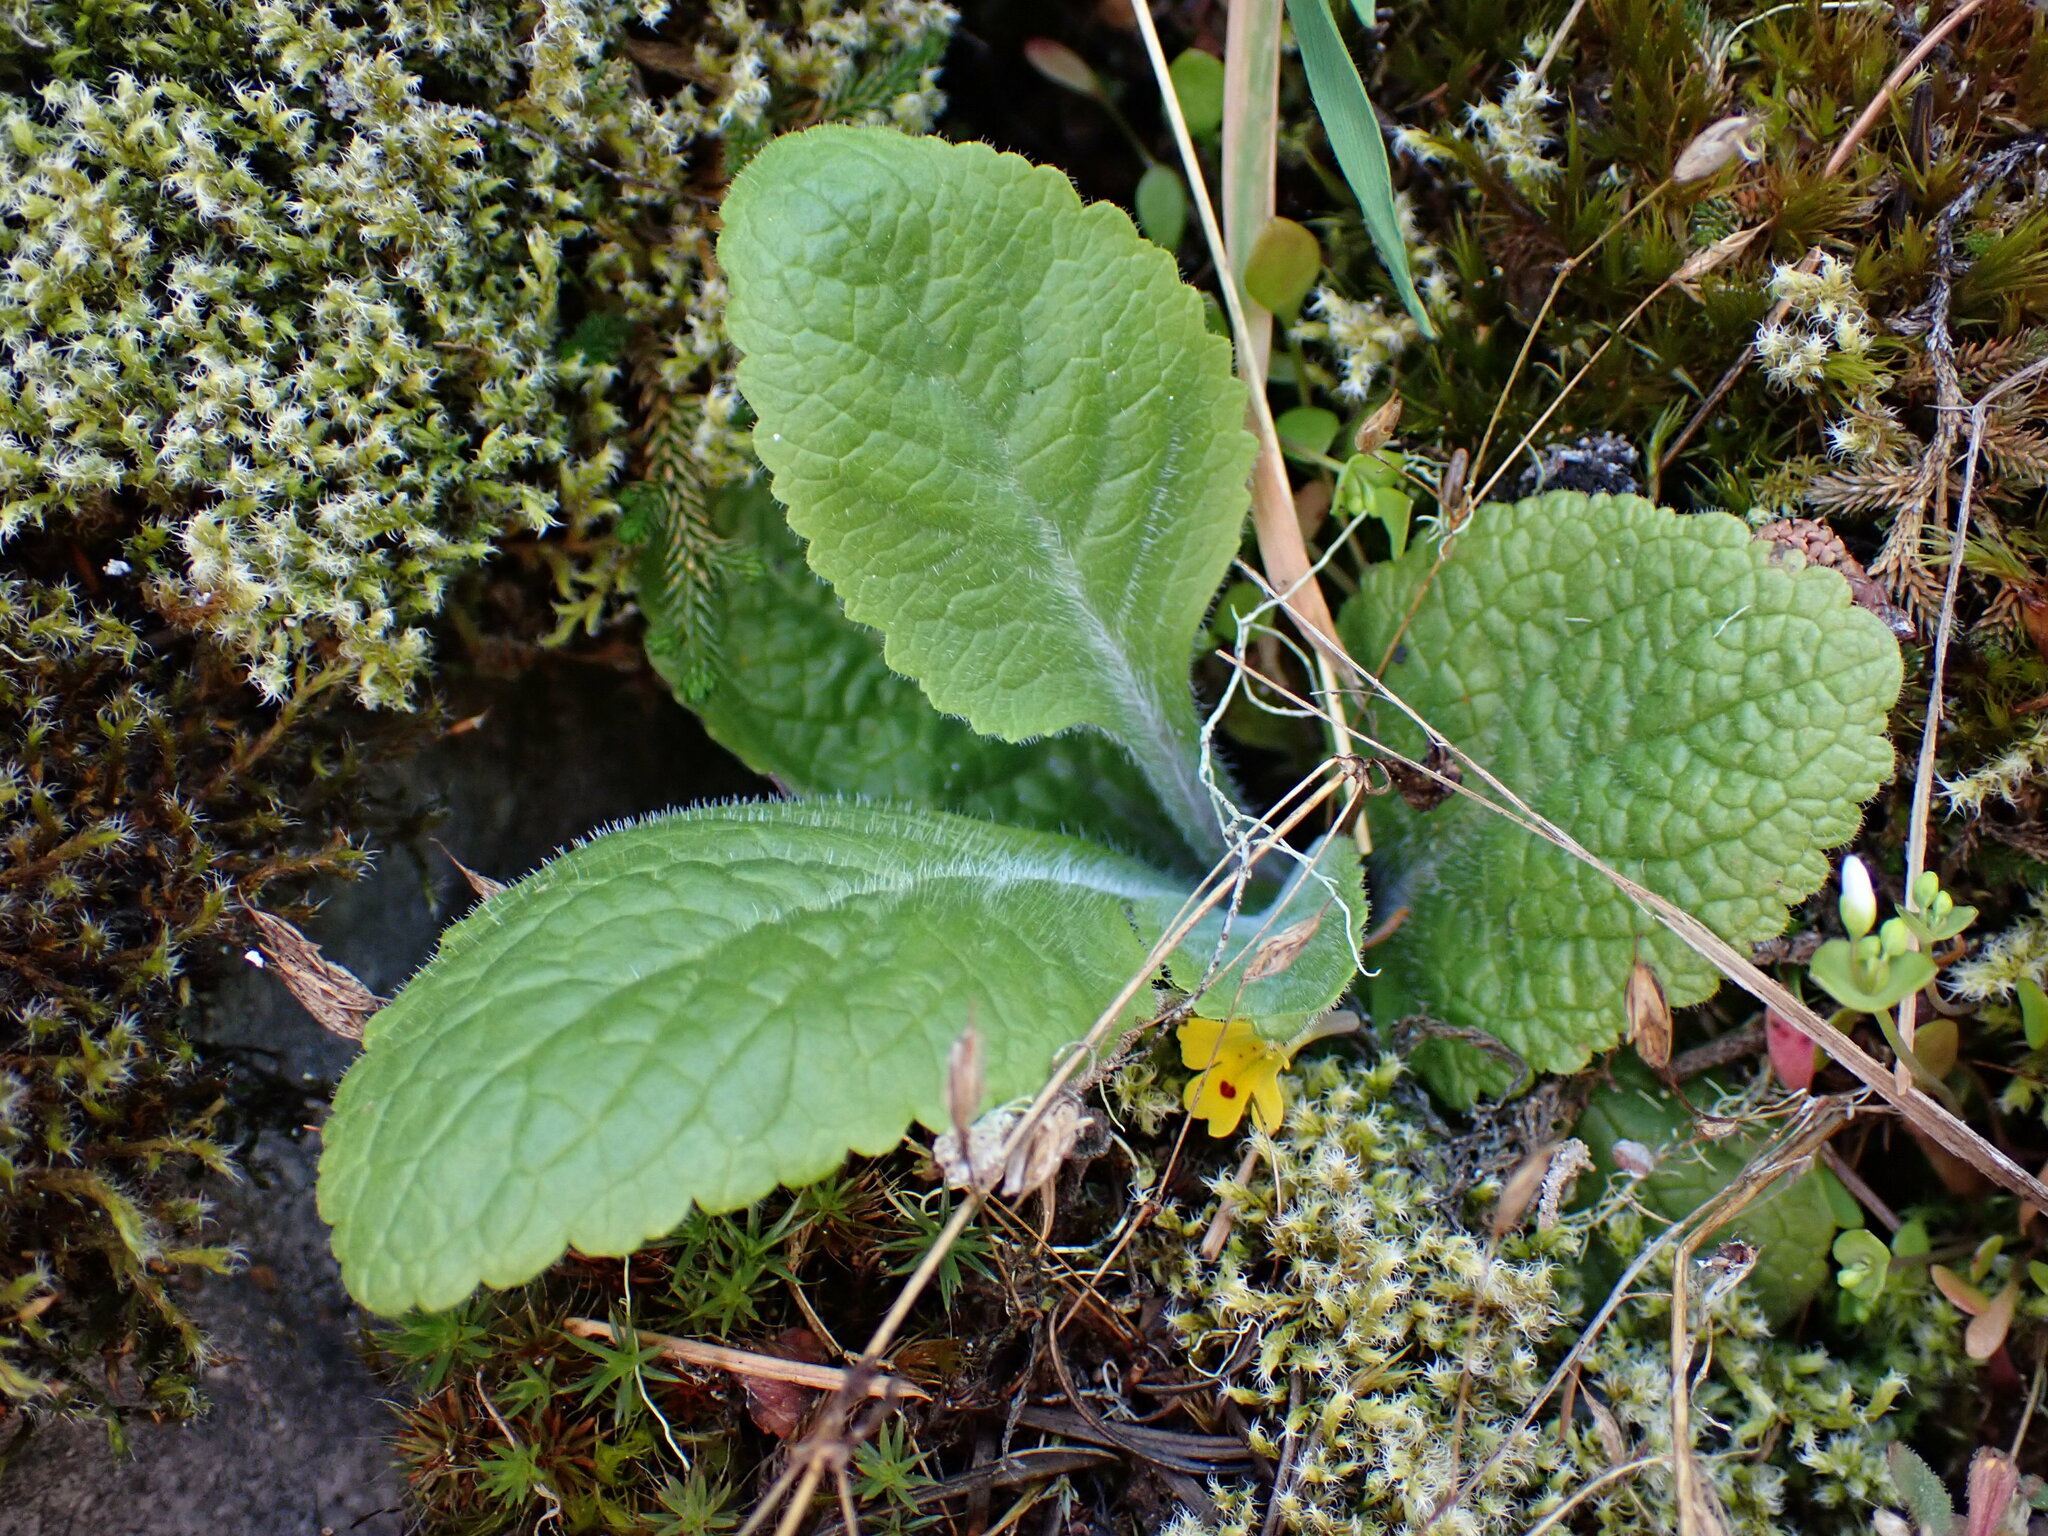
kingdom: Plantae
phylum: Tracheophyta
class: Magnoliopsida
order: Lamiales
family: Plantaginaceae
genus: Digitalis
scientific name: Digitalis purpurea
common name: Foxglove
